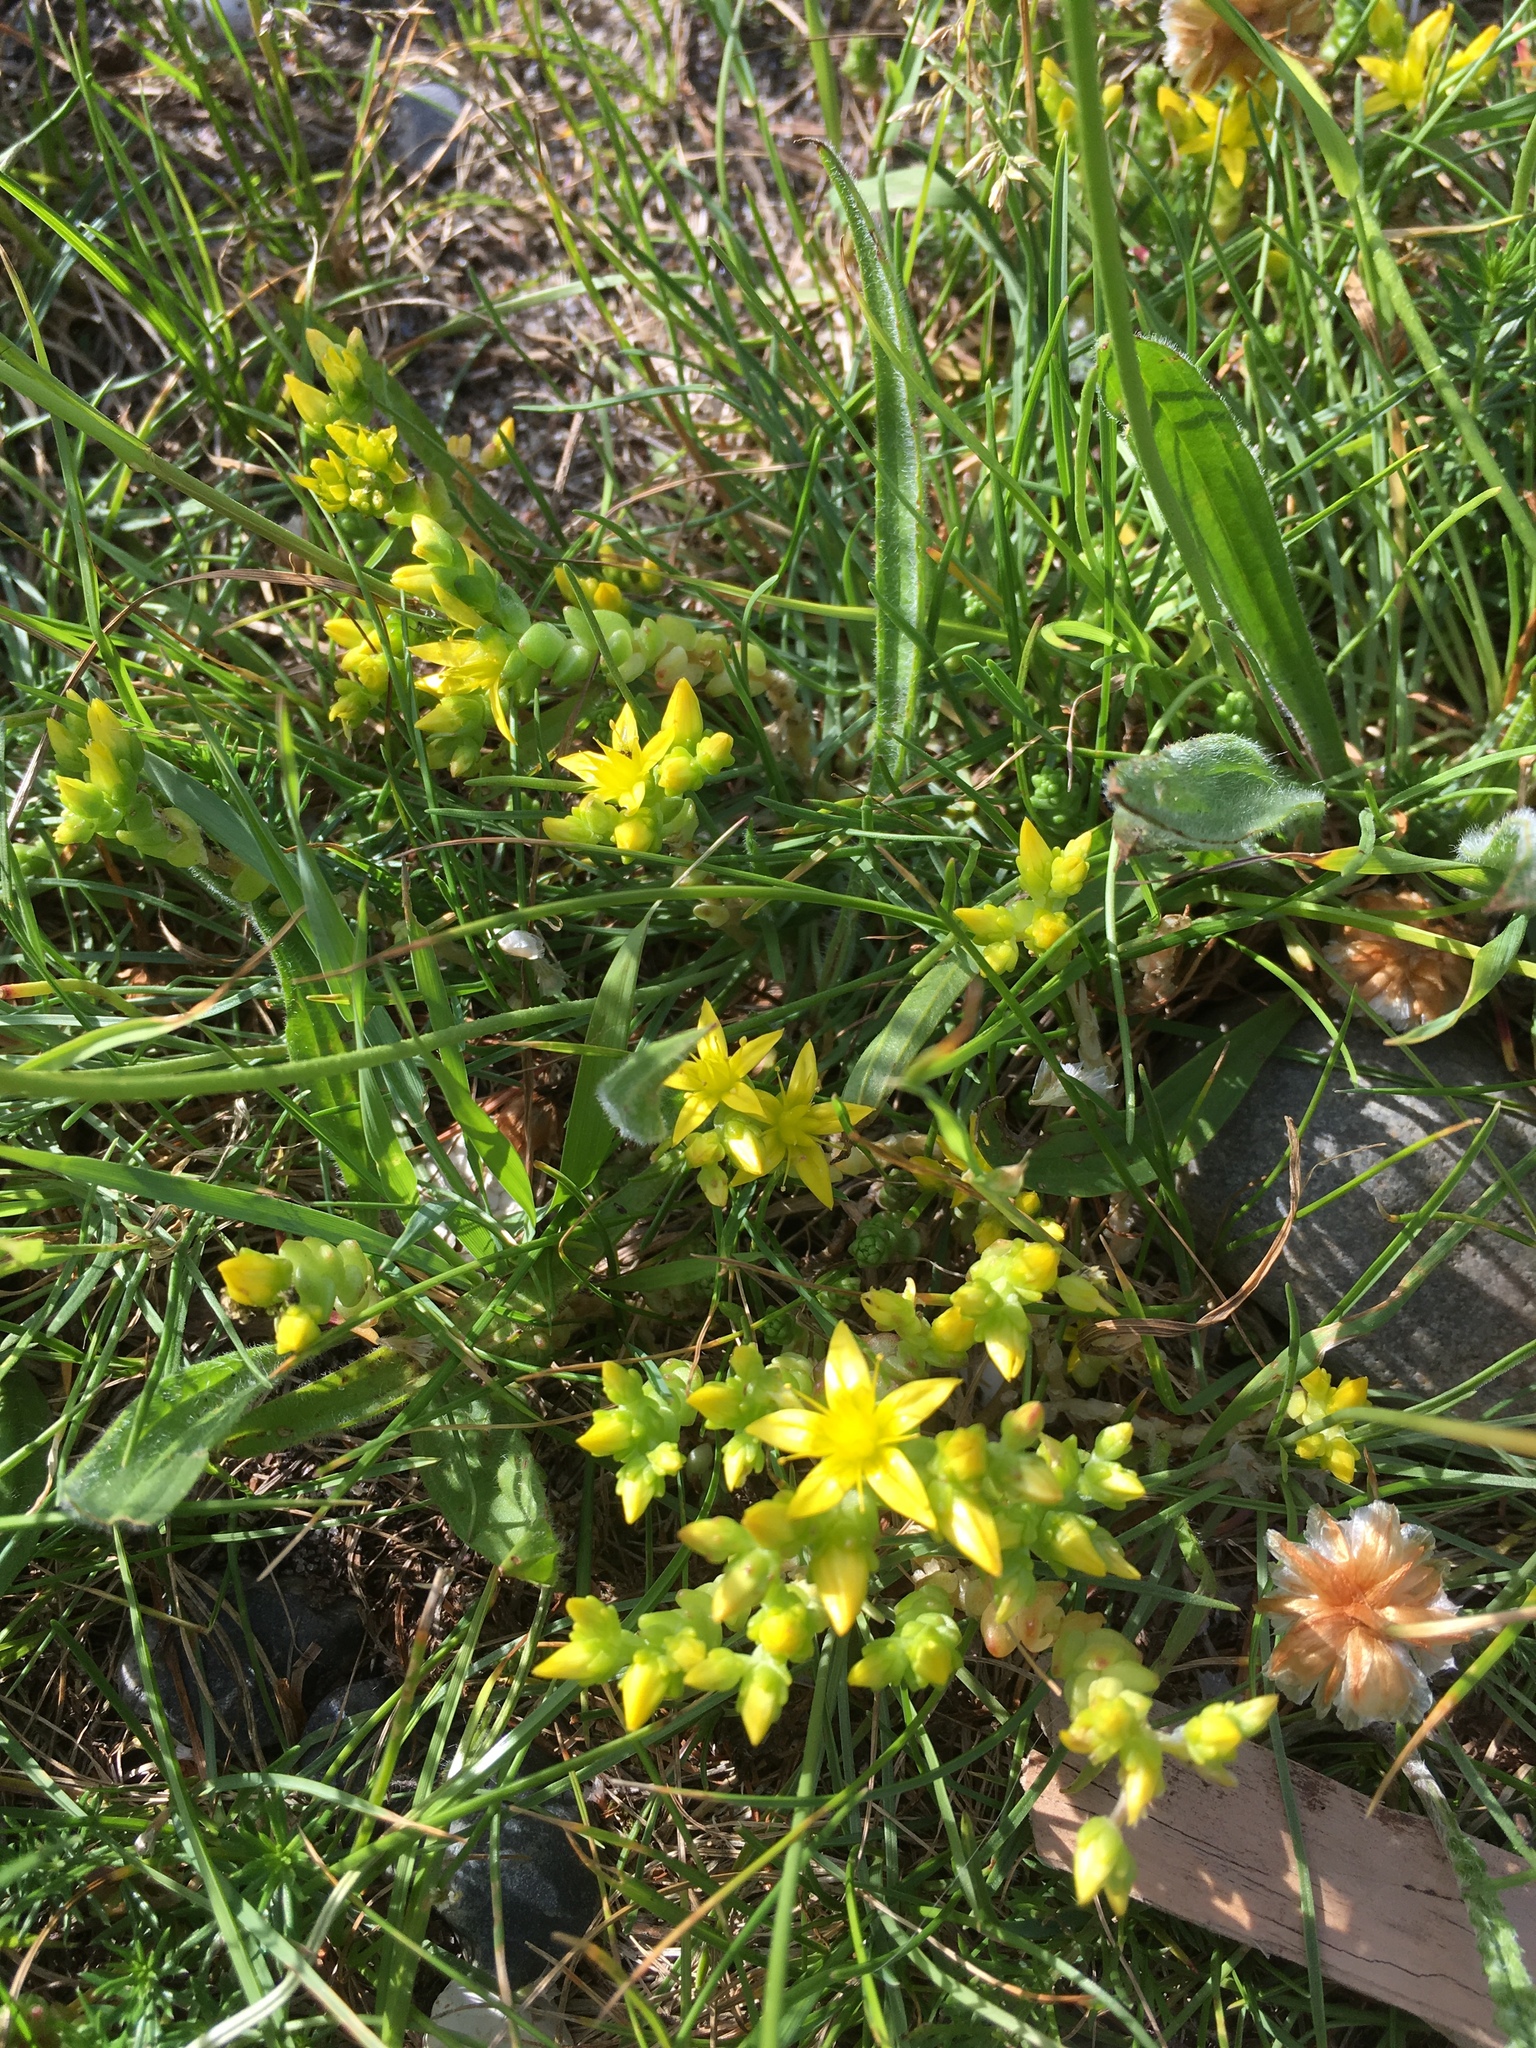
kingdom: Plantae
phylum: Tracheophyta
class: Magnoliopsida
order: Saxifragales
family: Crassulaceae
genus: Sedum
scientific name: Sedum acre
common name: Biting stonecrop
